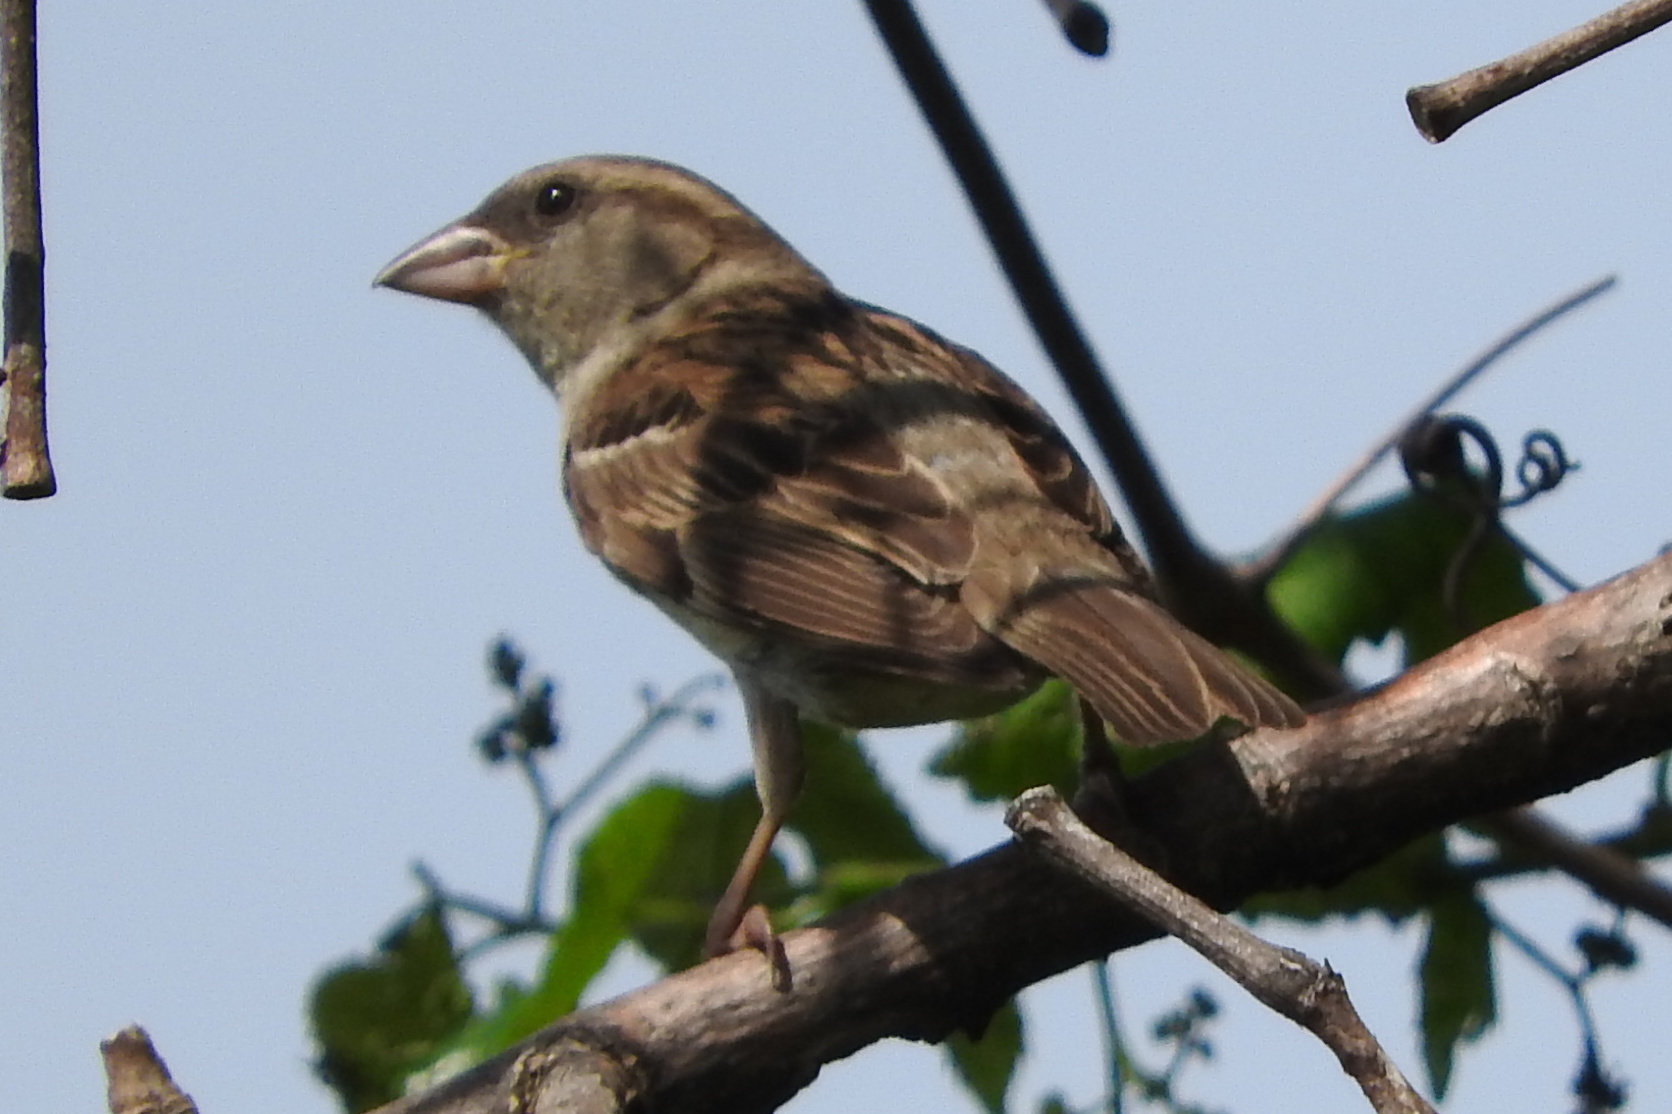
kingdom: Animalia
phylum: Chordata
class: Aves
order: Passeriformes
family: Passeridae
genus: Passer
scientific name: Passer domesticus
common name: House sparrow
